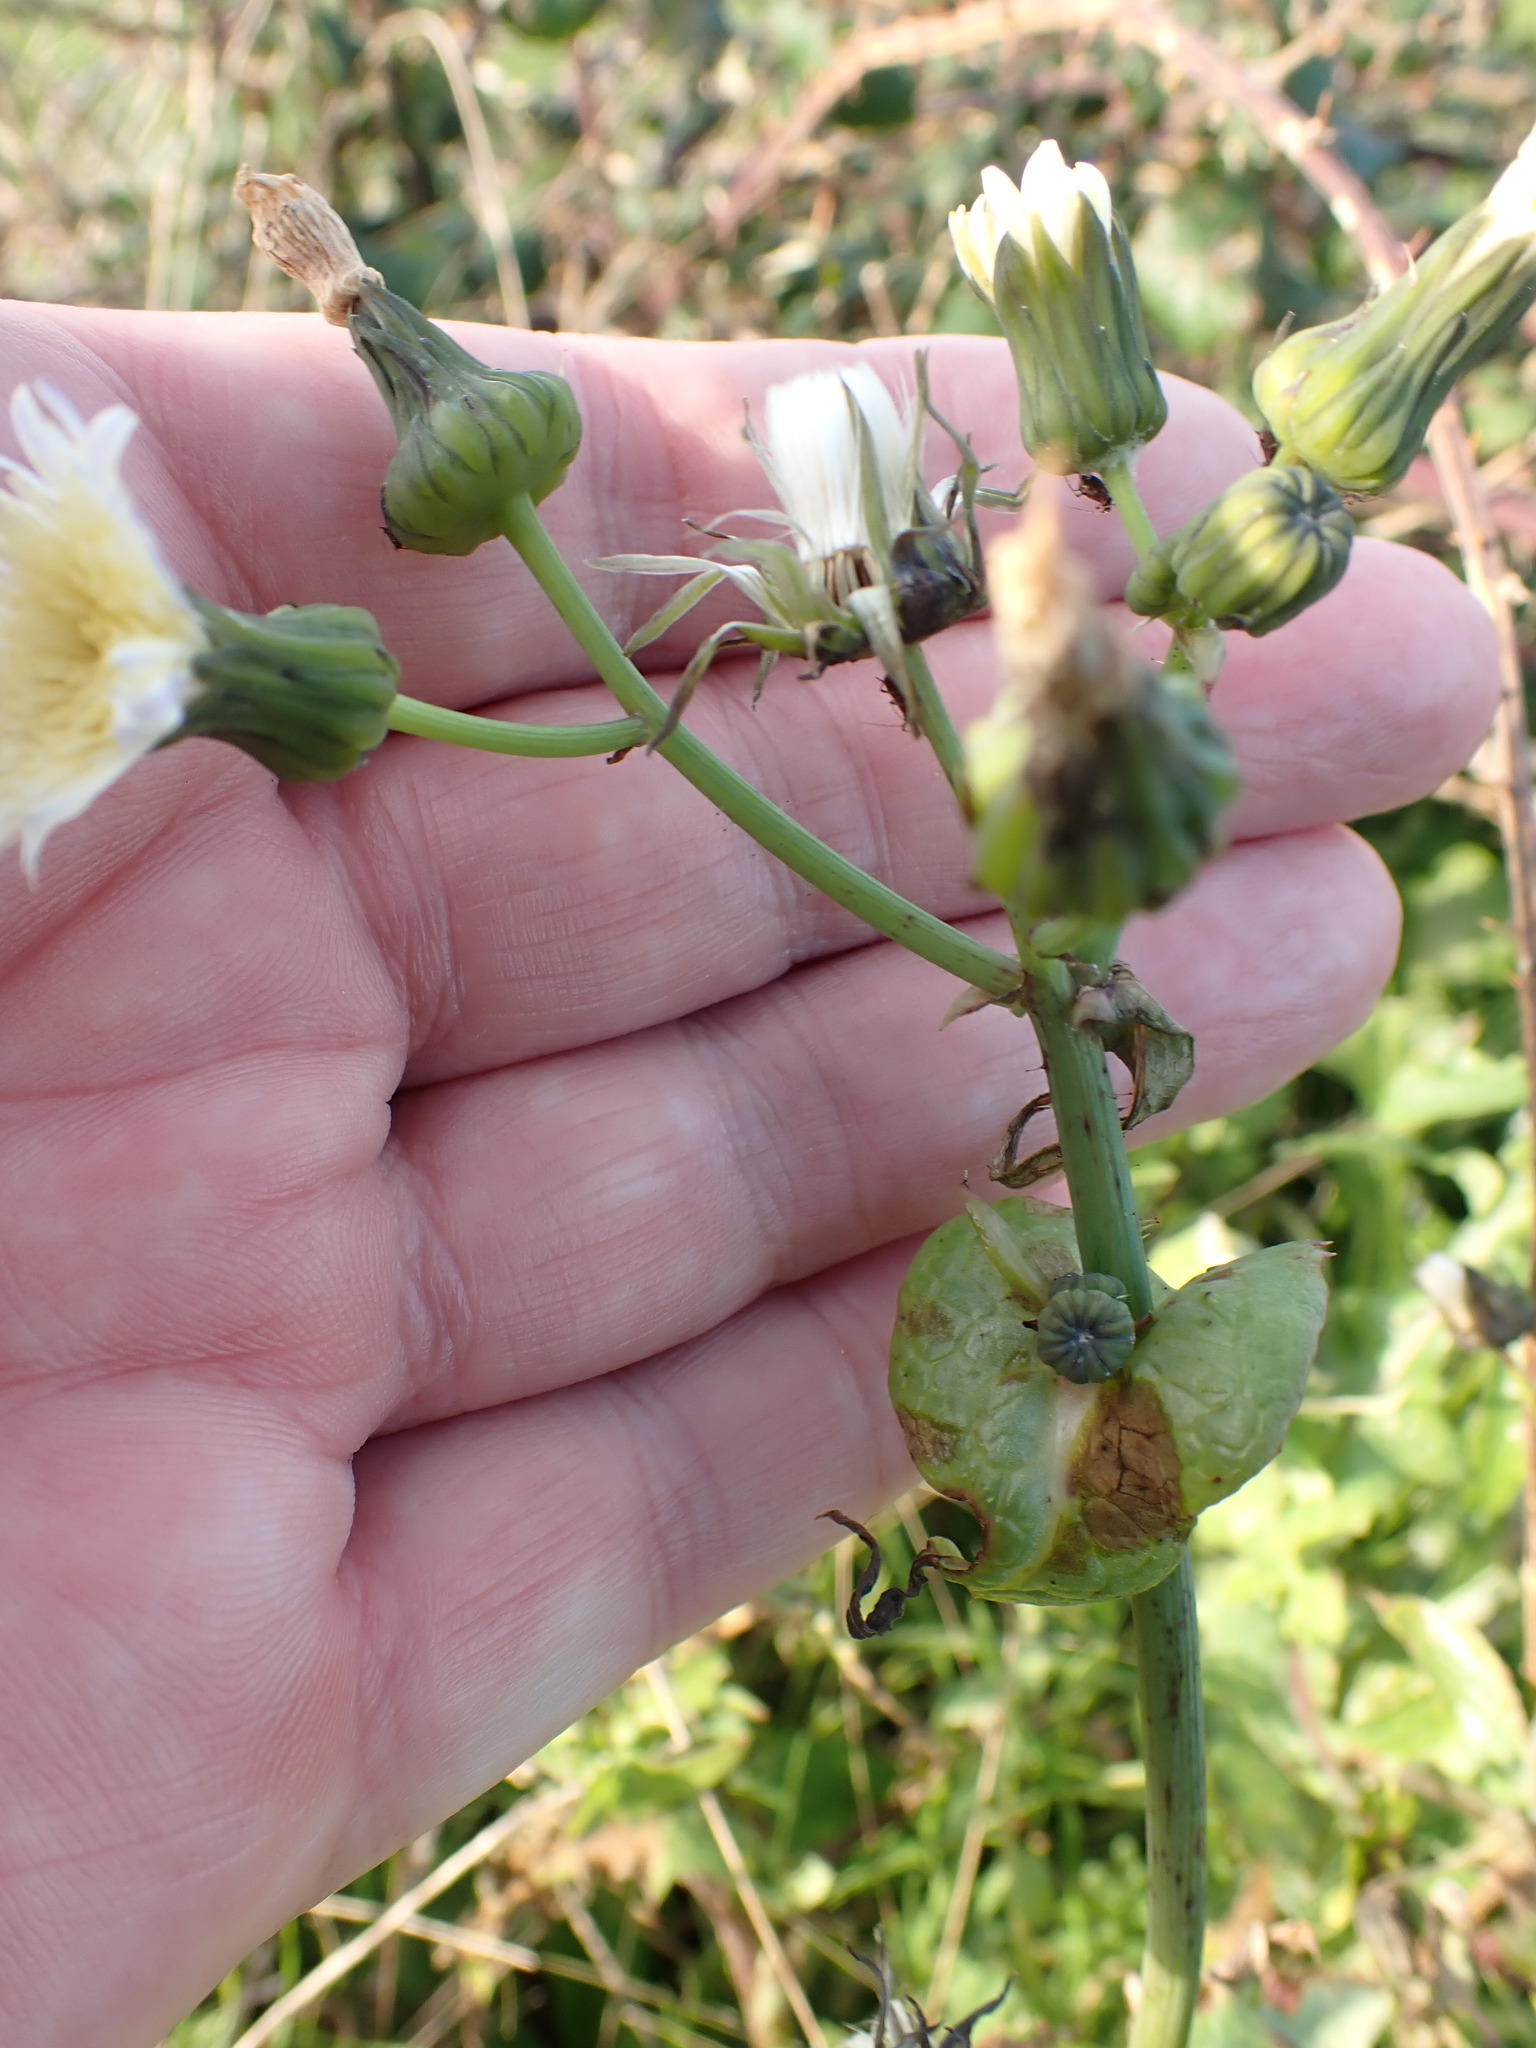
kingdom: Plantae
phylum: Tracheophyta
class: Magnoliopsida
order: Asterales
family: Asteraceae
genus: Sonchus
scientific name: Sonchus oleraceus
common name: Common sowthistle
